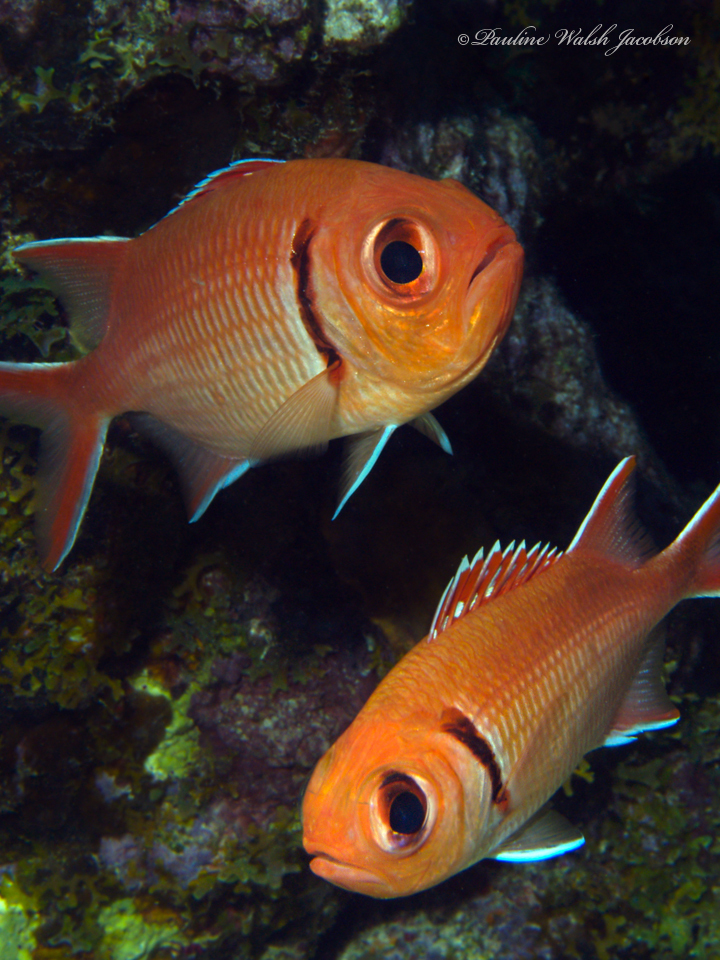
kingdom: Animalia
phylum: Chordata
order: Beryciformes
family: Holocentridae
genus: Myripristis
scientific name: Myripristis jacobus
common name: Blackbar soldierfish
